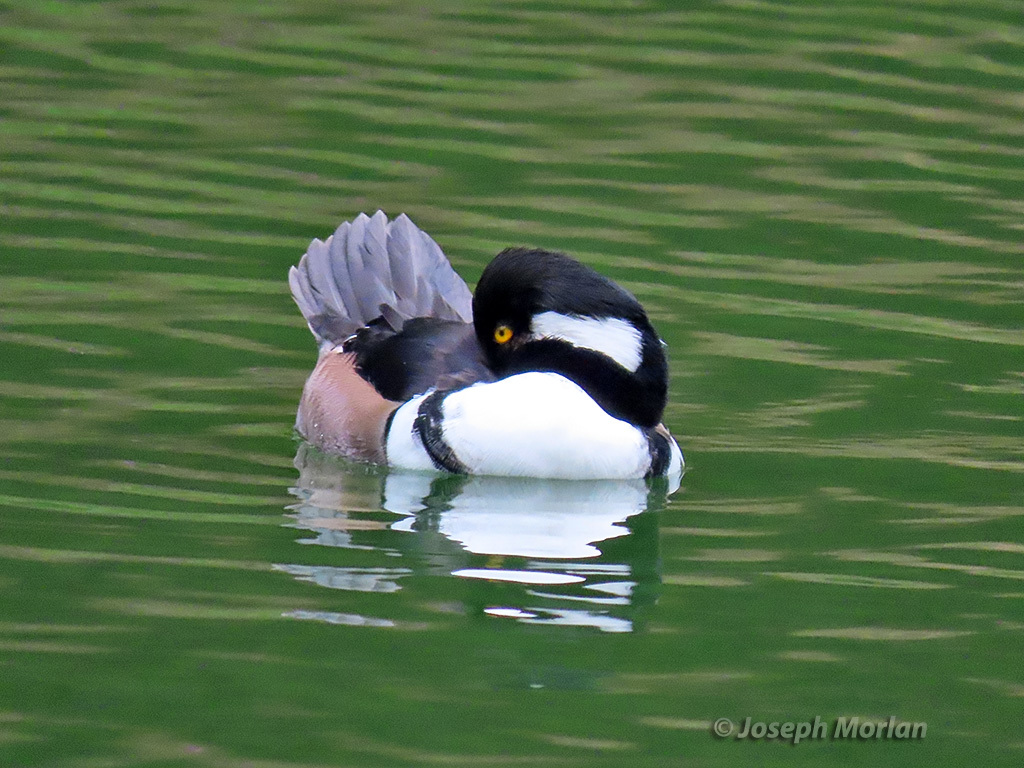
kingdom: Animalia
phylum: Chordata
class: Aves
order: Anseriformes
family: Anatidae
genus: Lophodytes
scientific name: Lophodytes cucullatus
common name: Hooded merganser
